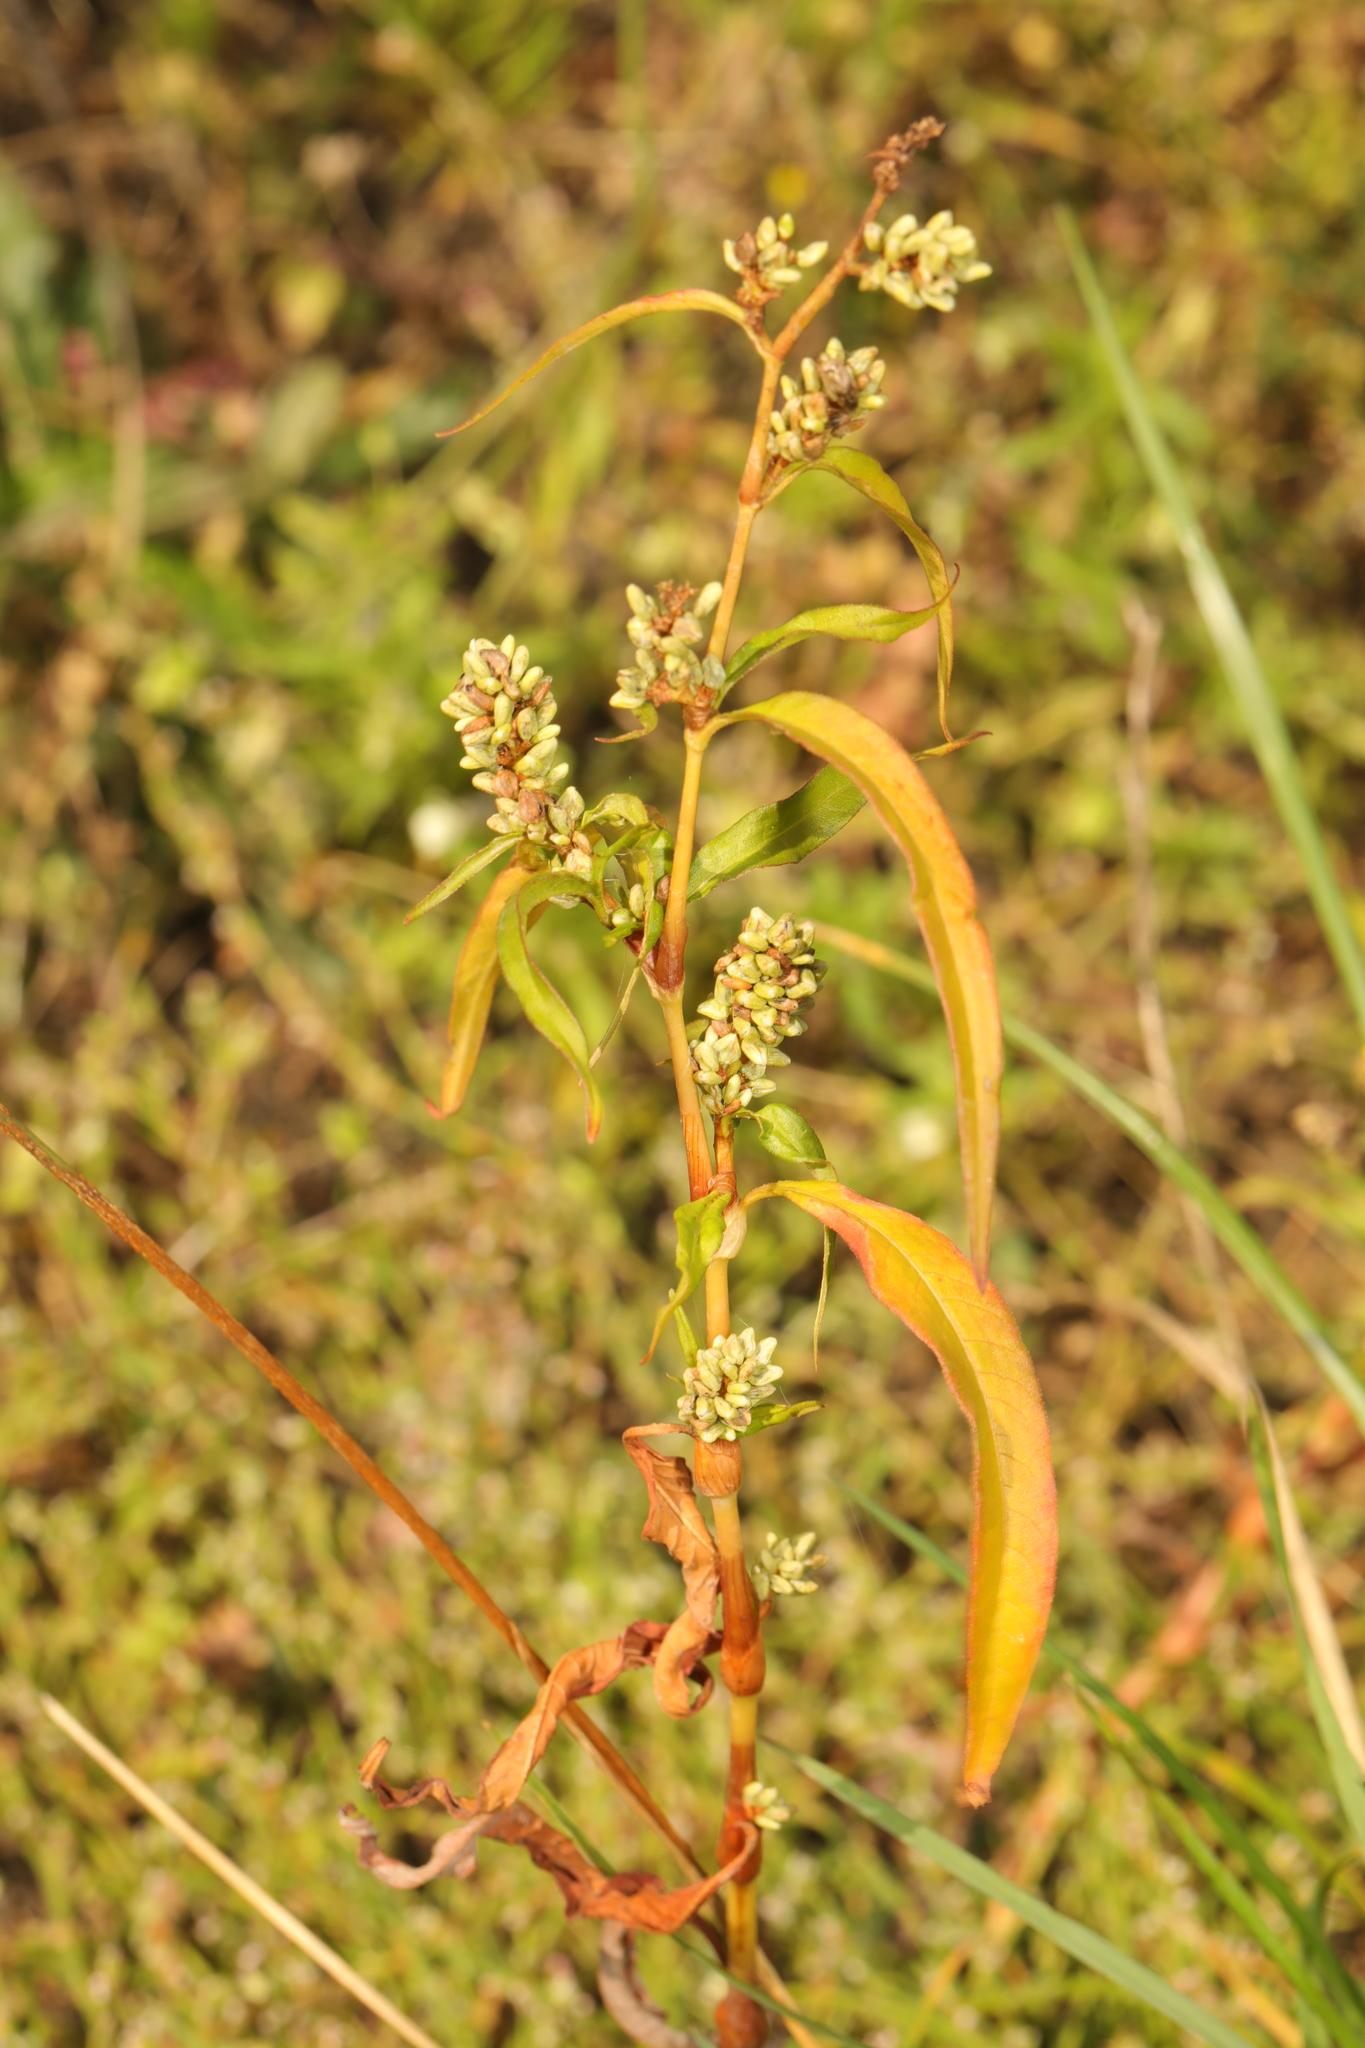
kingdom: Plantae
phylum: Tracheophyta
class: Magnoliopsida
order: Caryophyllales
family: Polygonaceae
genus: Persicaria
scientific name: Persicaria lapathifolia
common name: Curlytop knotweed
